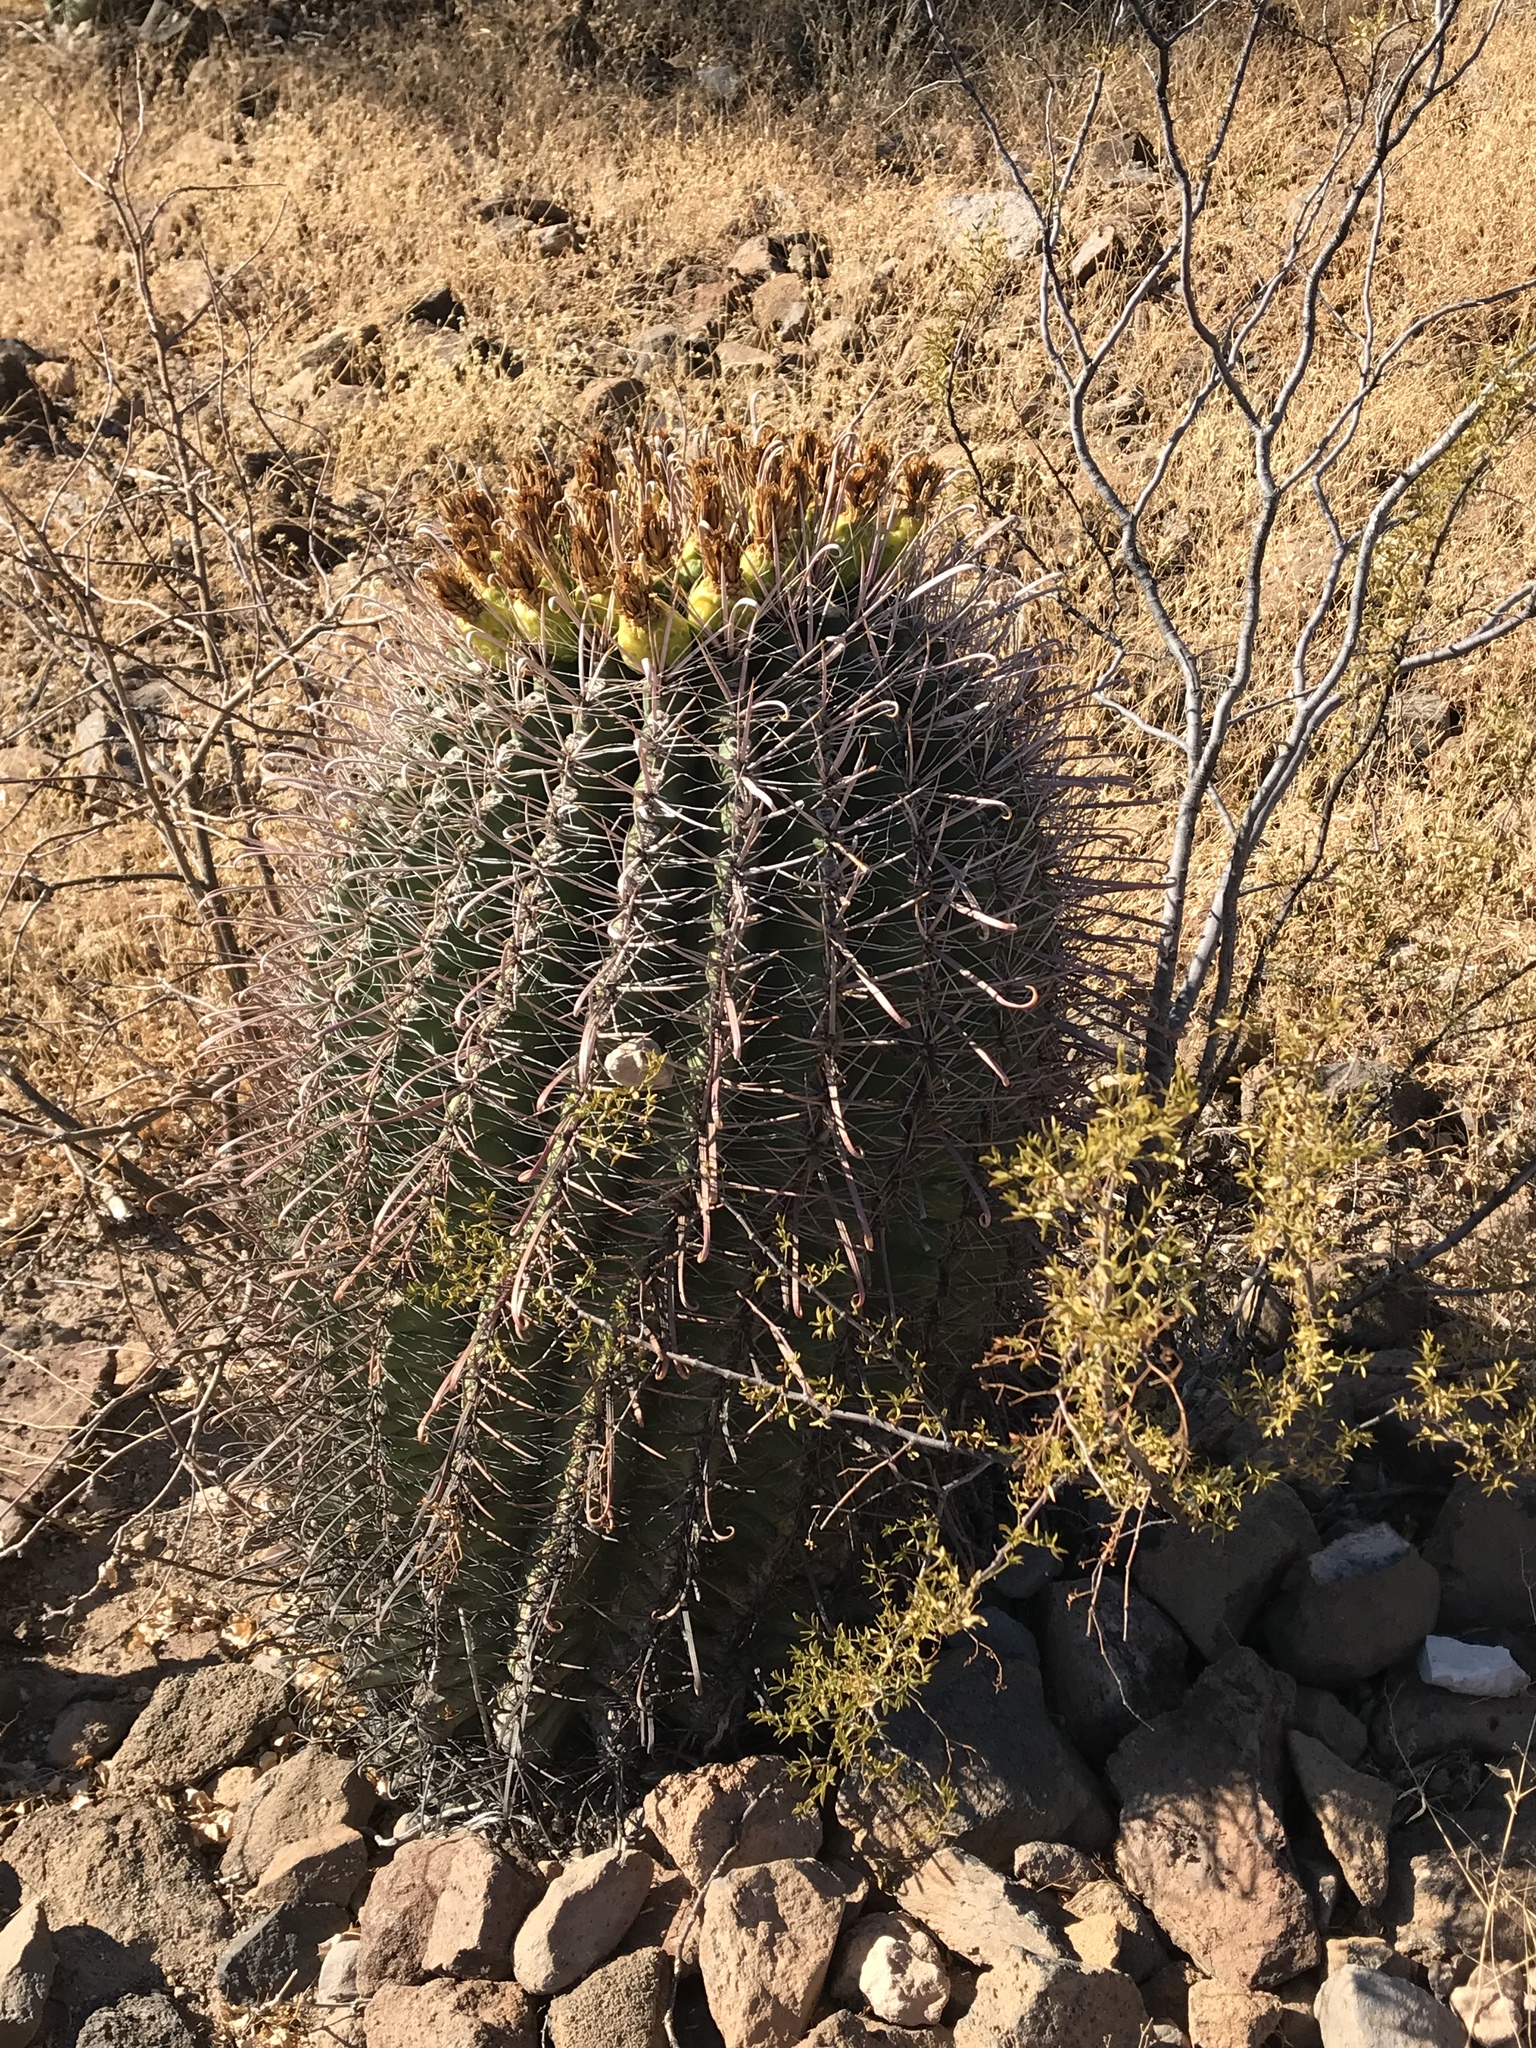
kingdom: Plantae
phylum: Tracheophyta
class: Magnoliopsida
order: Caryophyllales
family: Cactaceae
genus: Ferocactus
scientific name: Ferocactus wislizeni
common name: Candy barrel cactus
